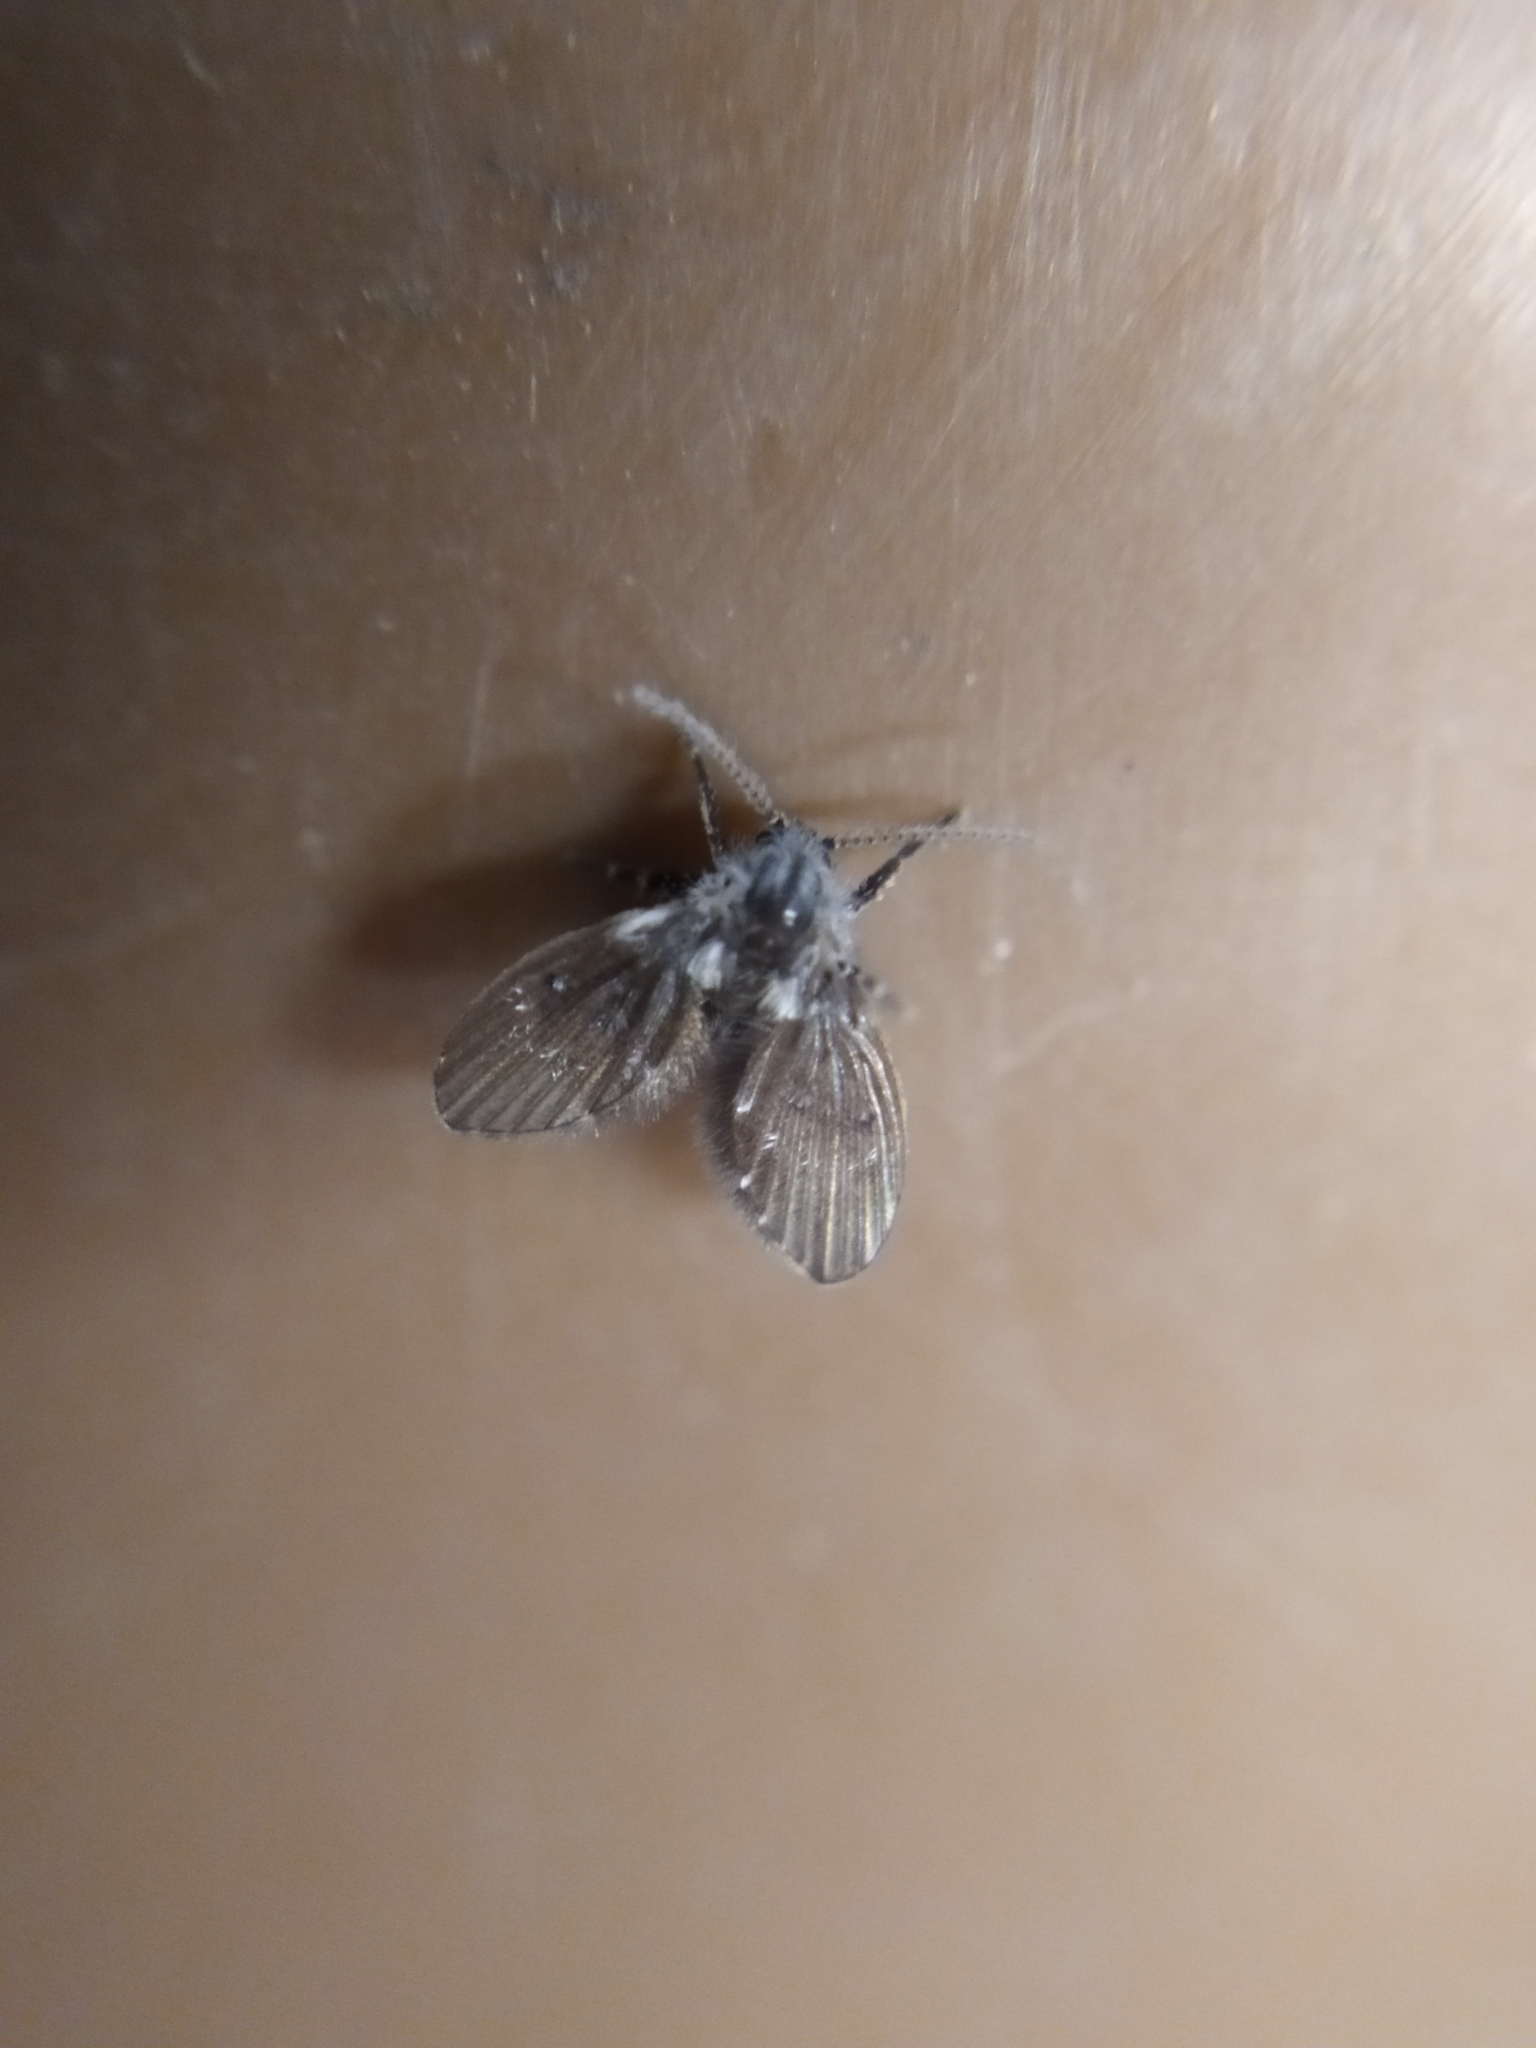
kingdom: Animalia
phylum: Arthropoda
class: Insecta
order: Diptera
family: Psychodidae
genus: Clogmia
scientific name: Clogmia albipunctatus
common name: White-spotted moth fly
